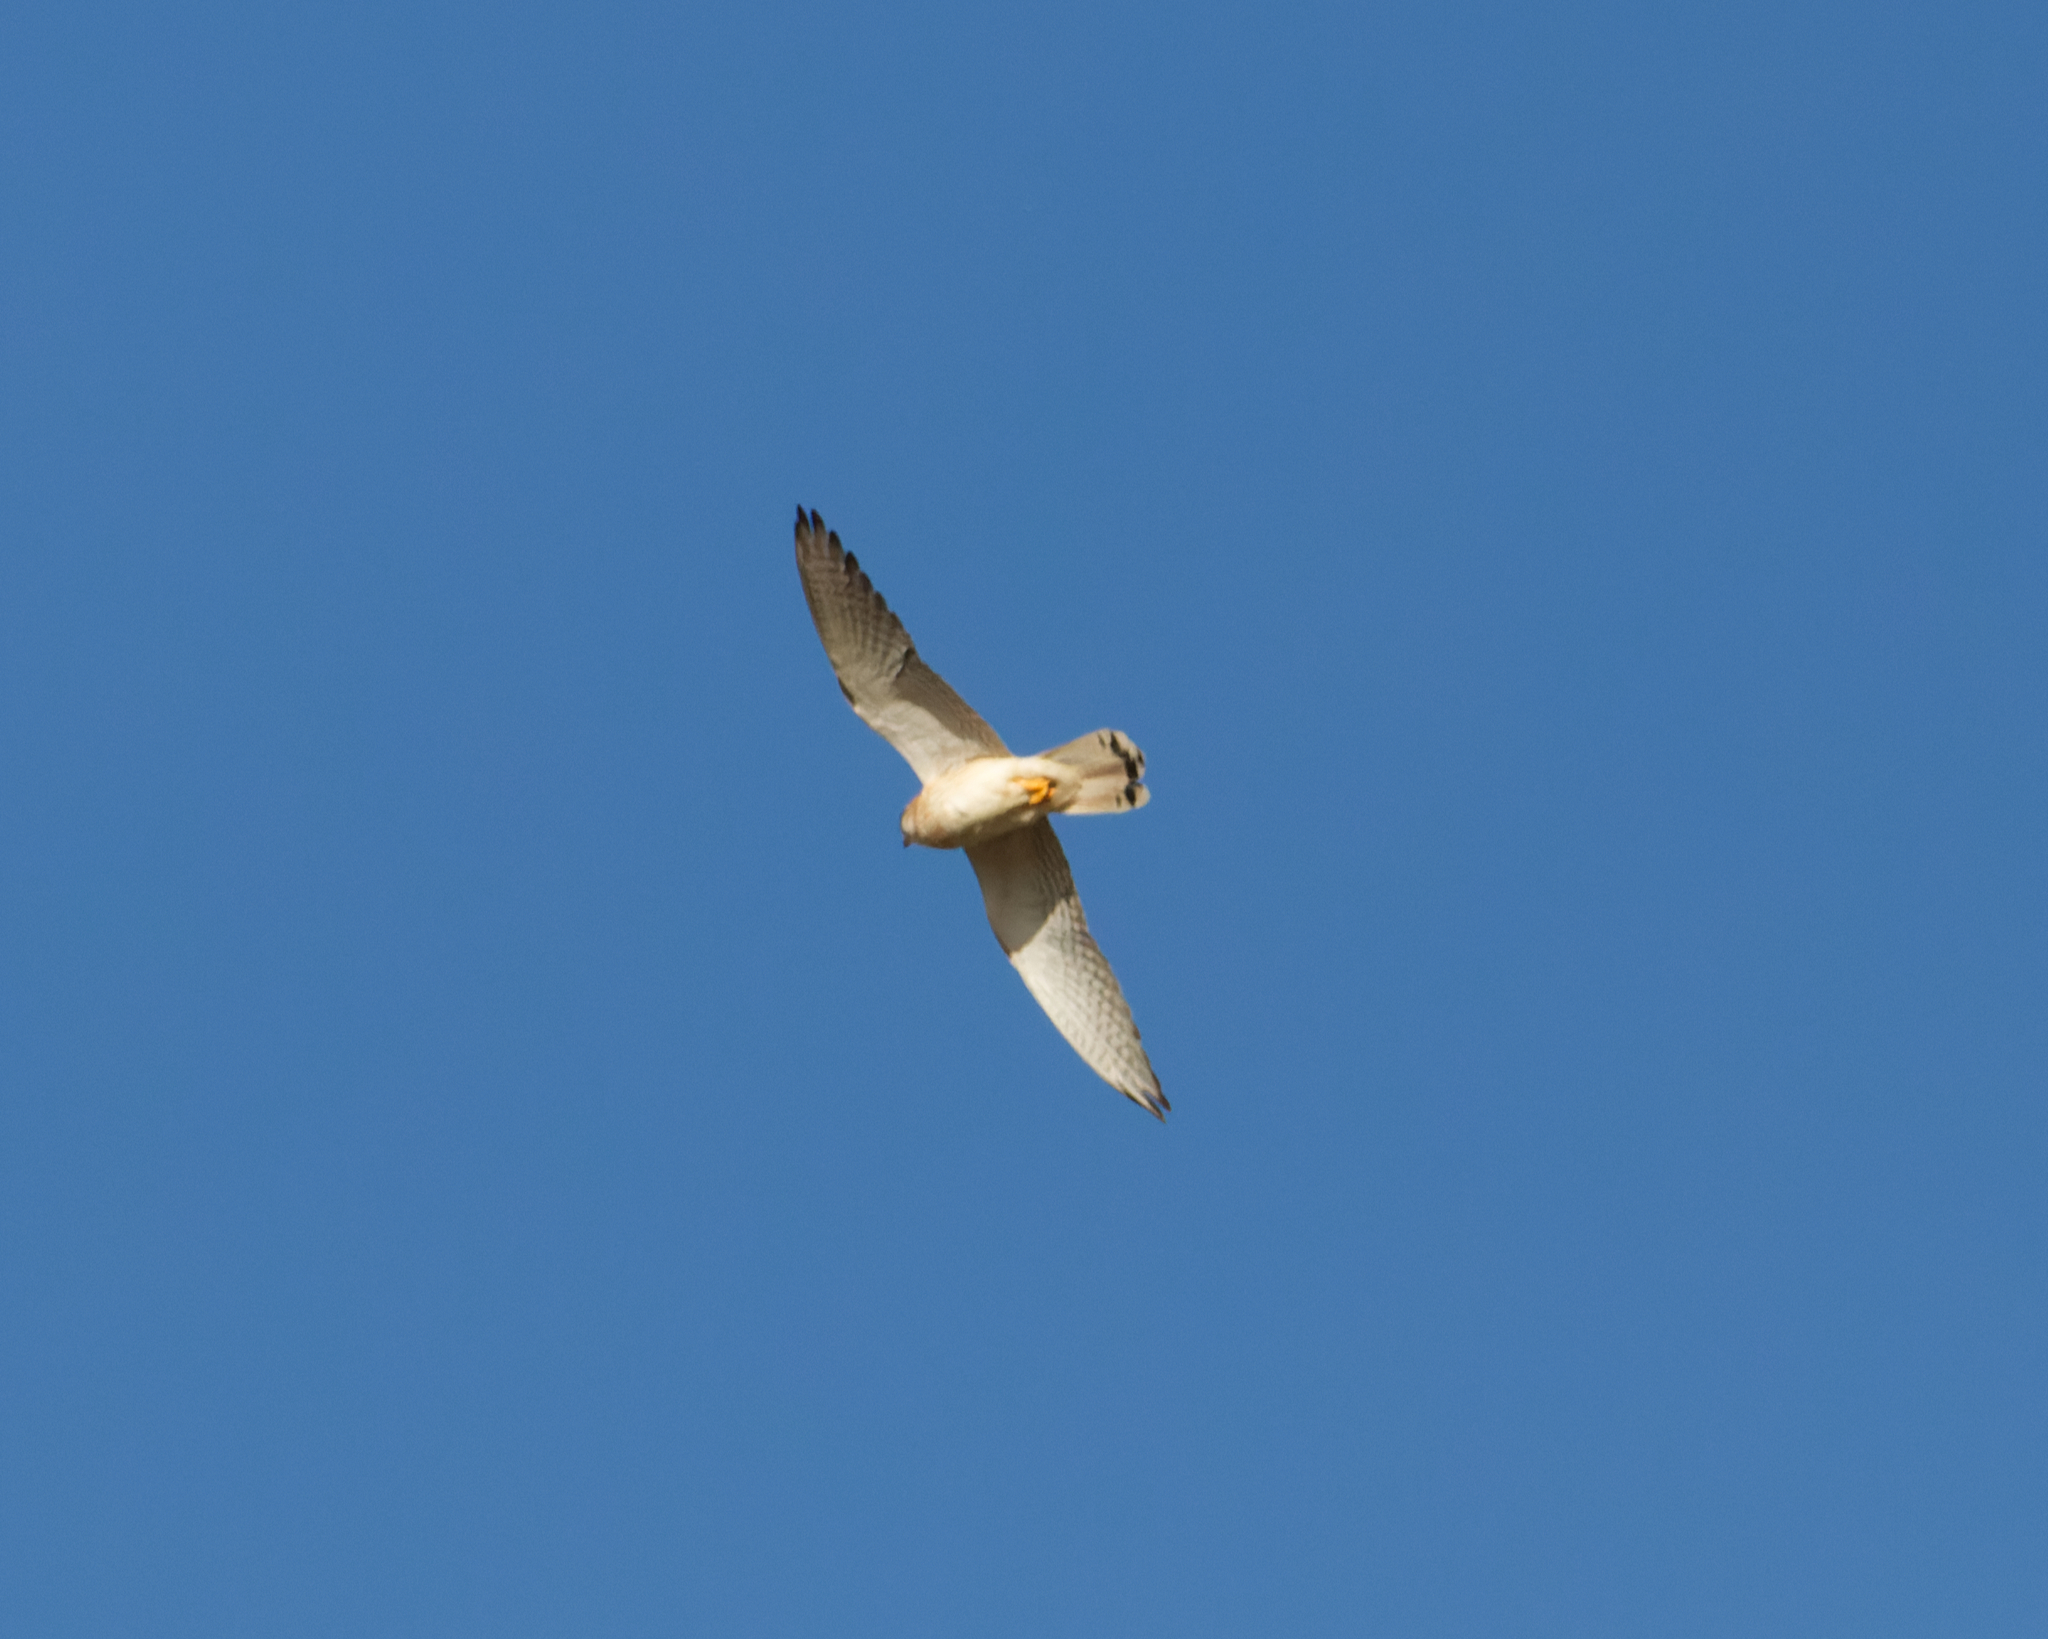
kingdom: Animalia
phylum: Chordata
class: Aves
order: Falconiformes
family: Falconidae
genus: Falco
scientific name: Falco cenchroides
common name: Nankeen kestrel
